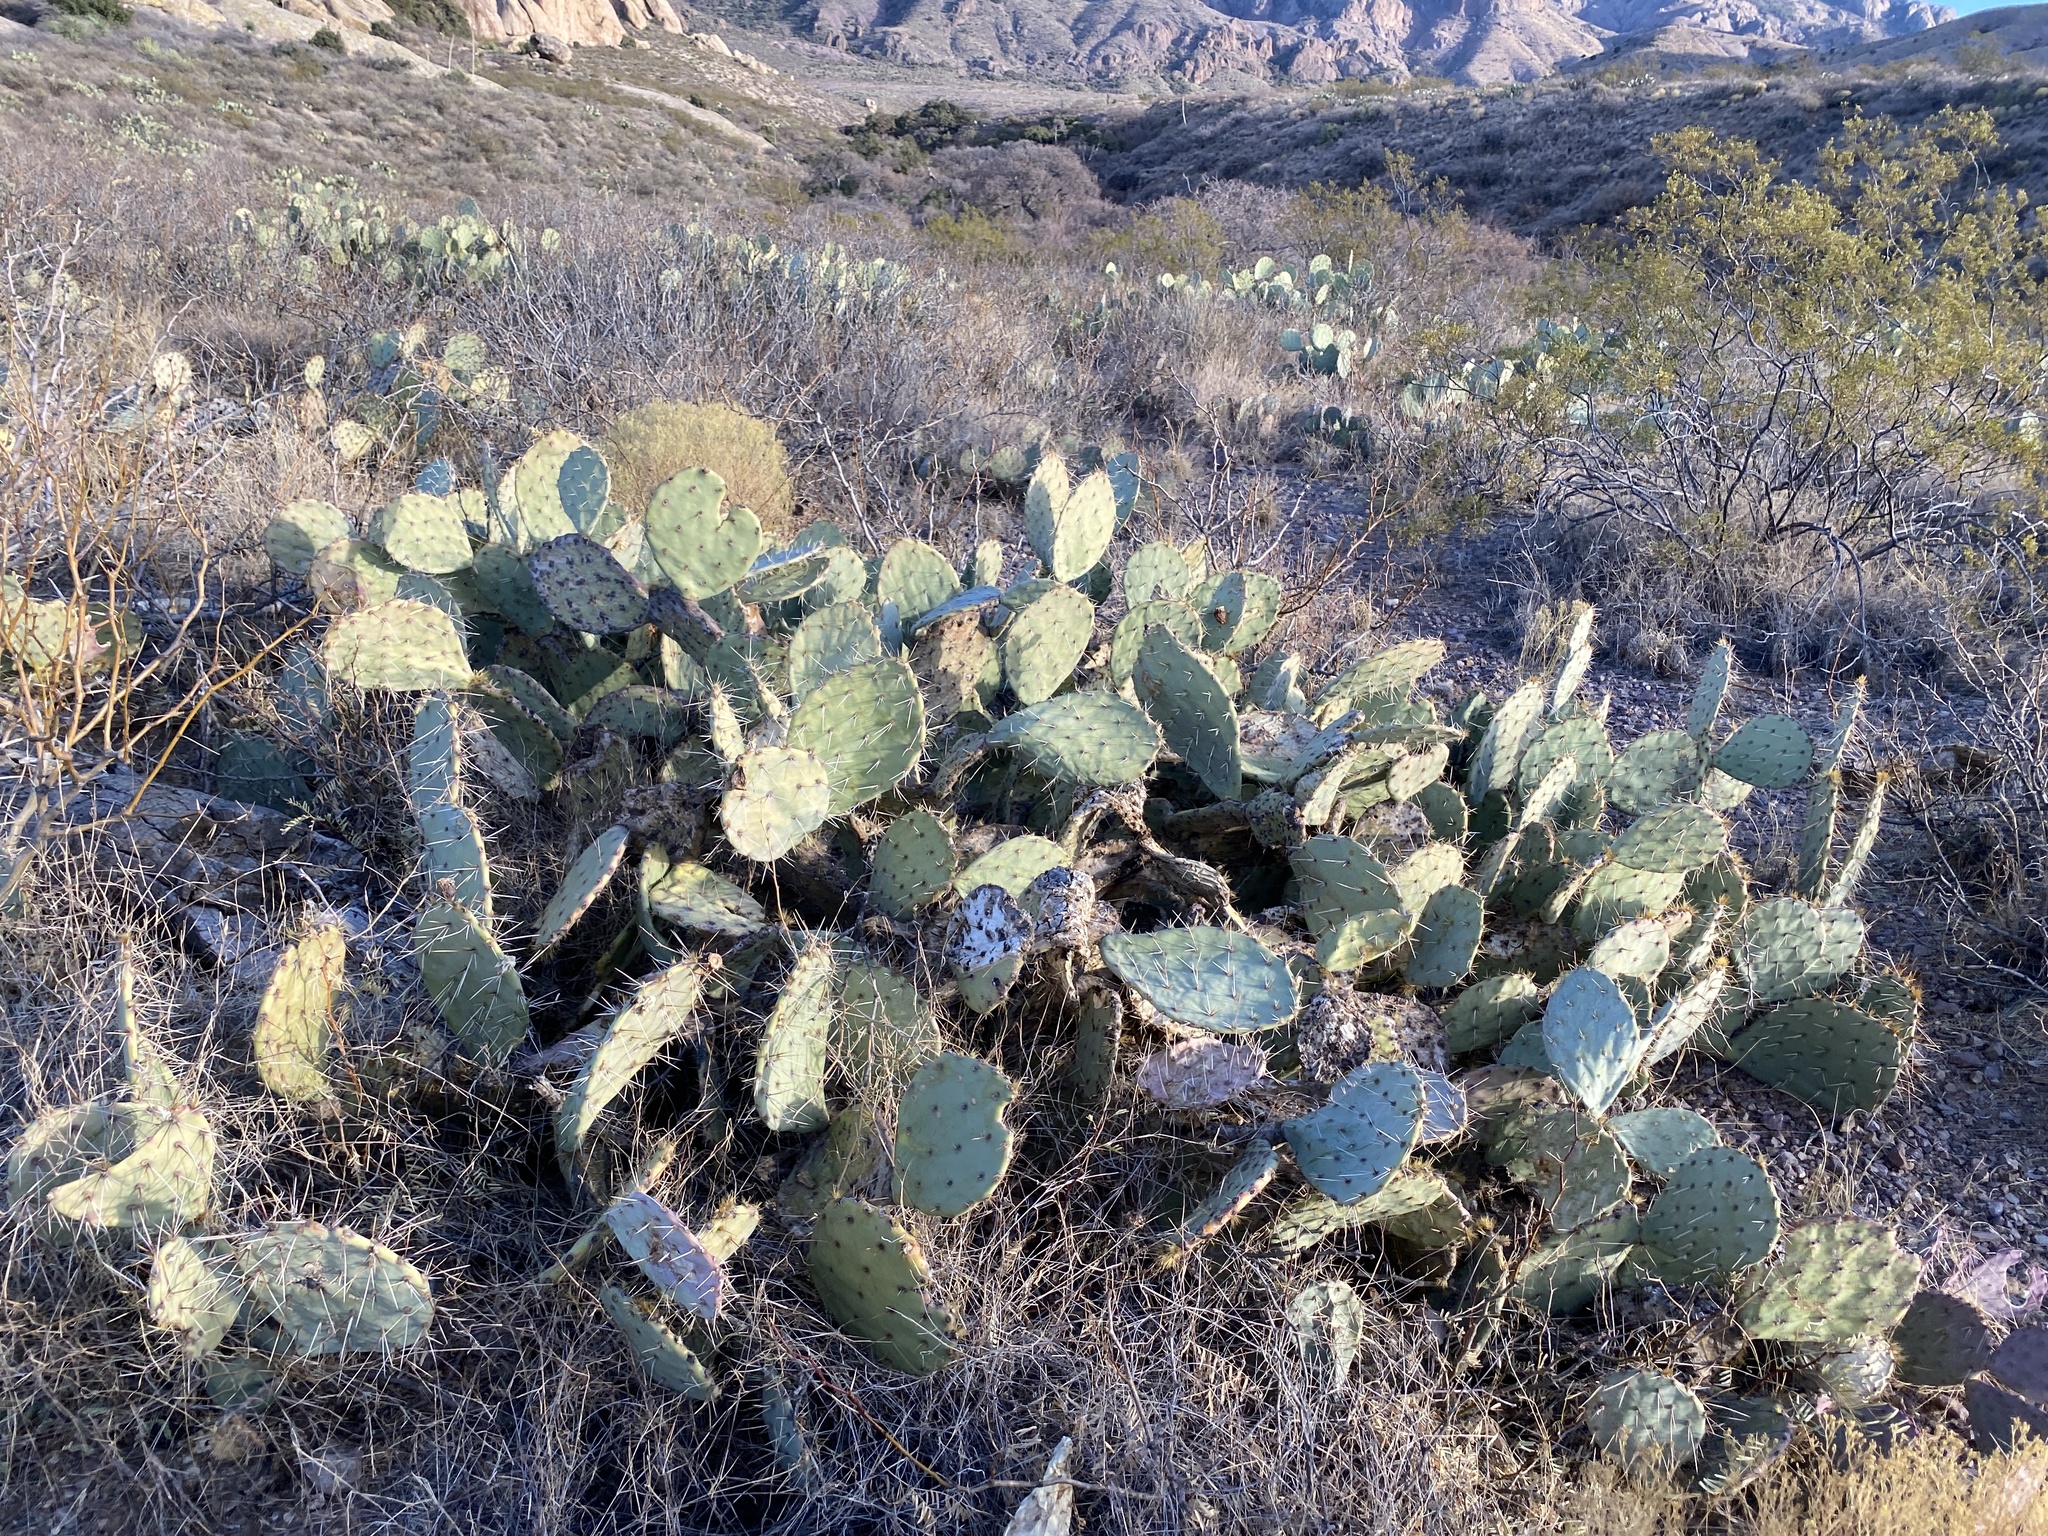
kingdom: Plantae
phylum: Tracheophyta
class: Magnoliopsida
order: Caryophyllales
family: Cactaceae
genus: Opuntia
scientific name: Opuntia engelmannii
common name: Cactus-apple
